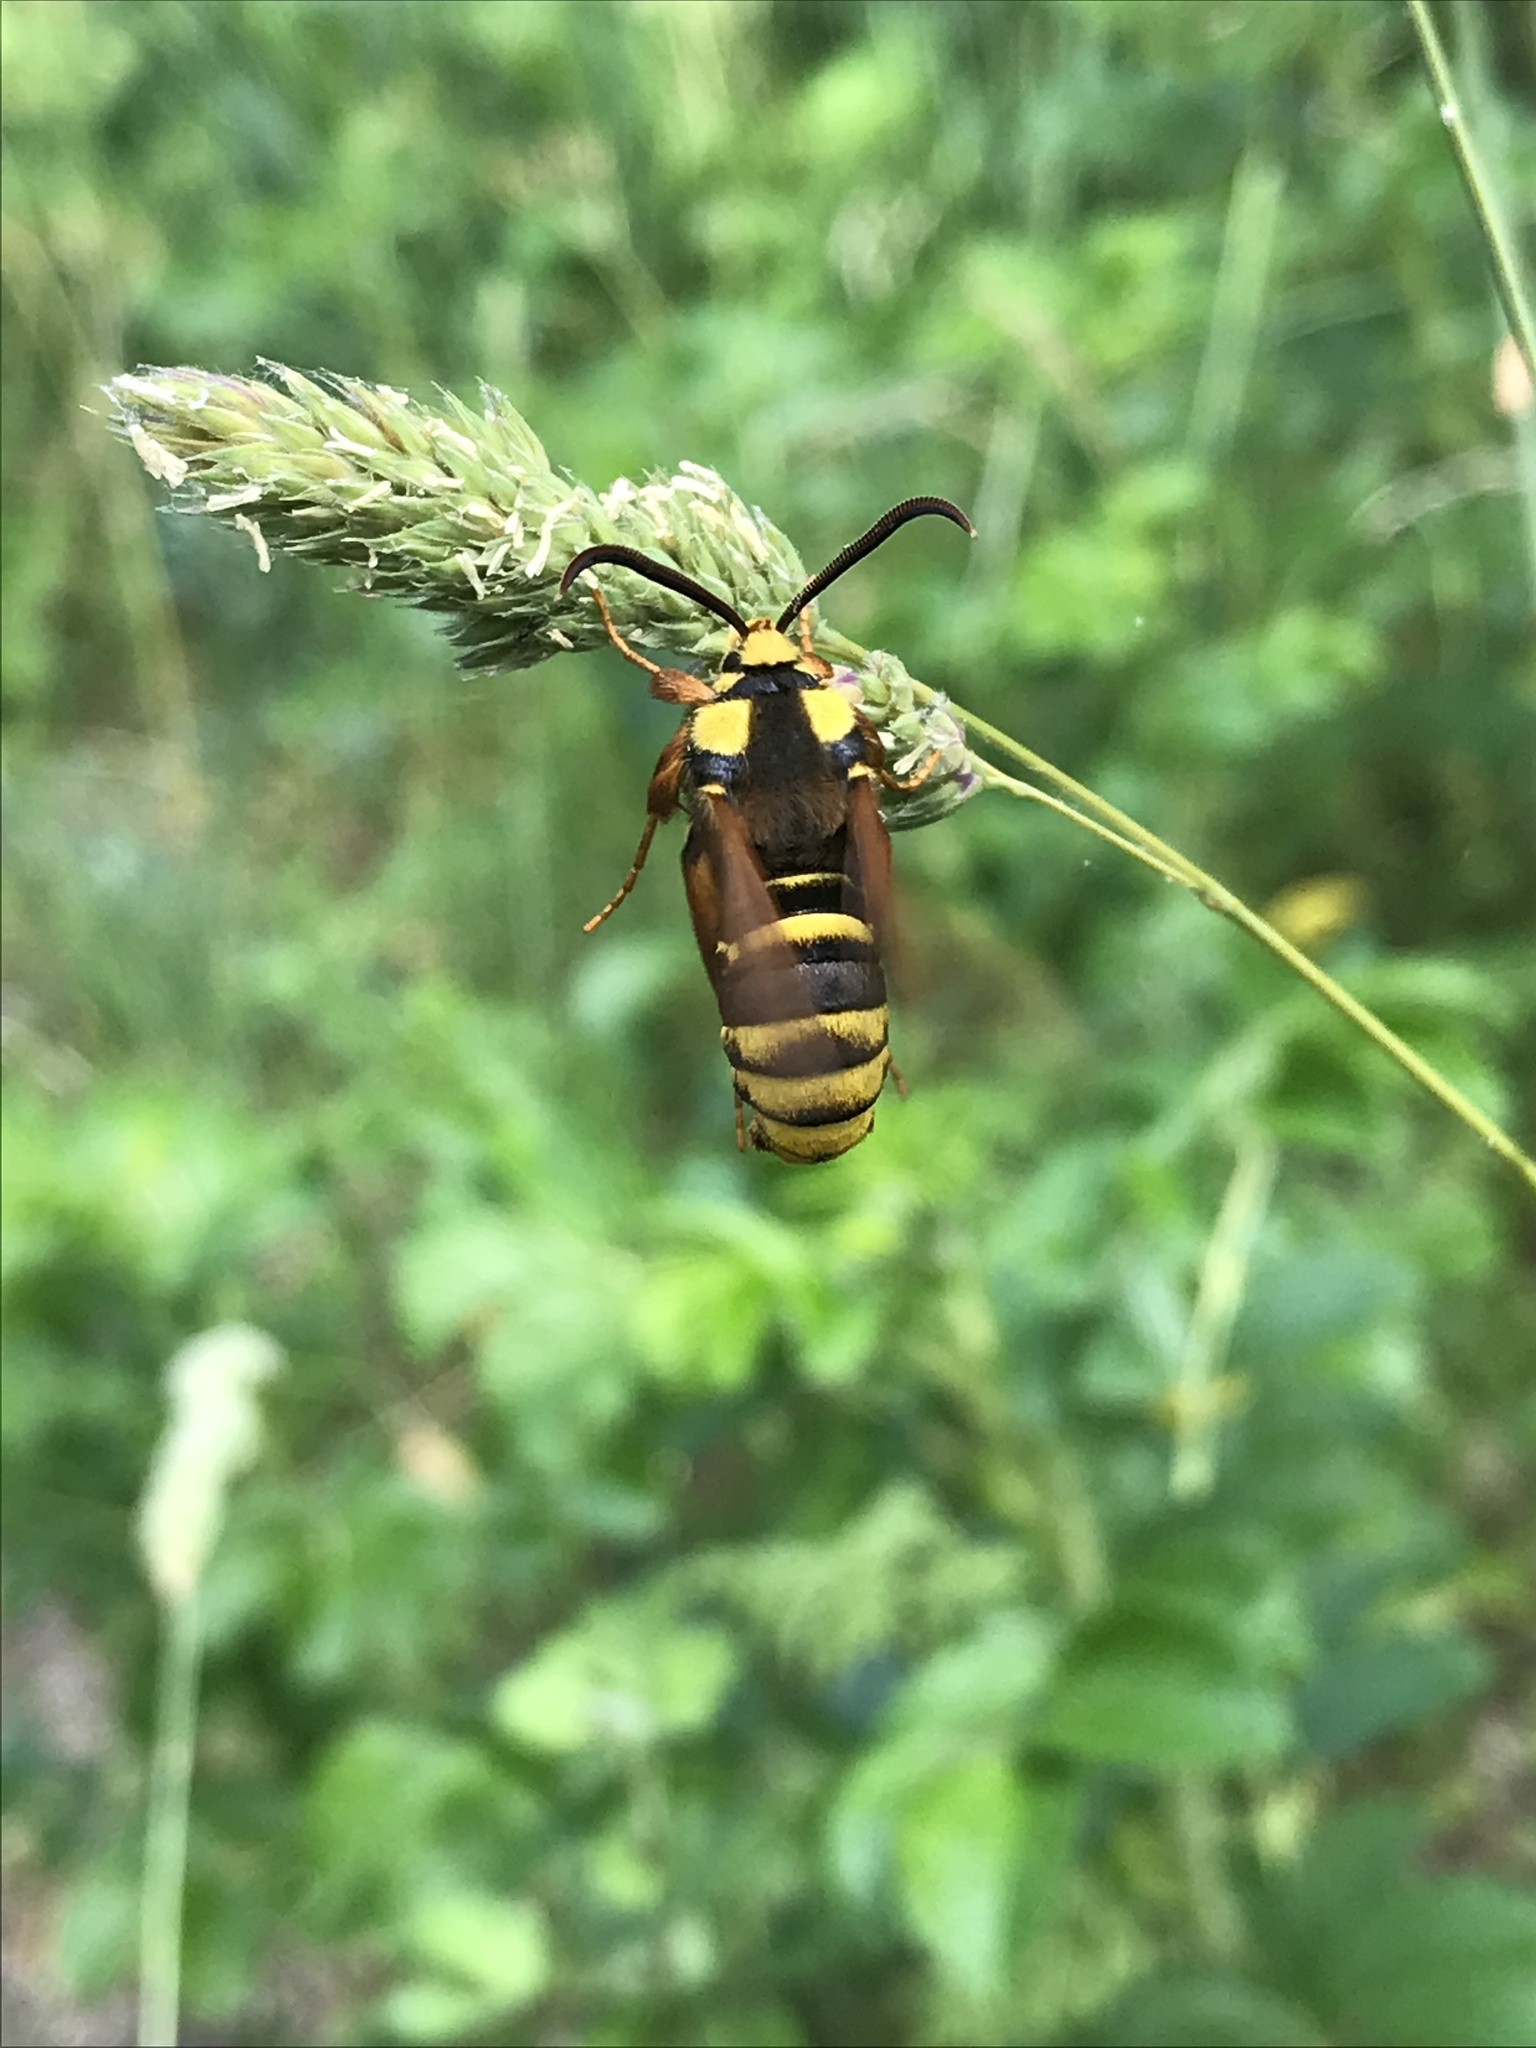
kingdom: Animalia
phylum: Arthropoda
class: Insecta
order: Lepidoptera
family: Sesiidae
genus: Sesia
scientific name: Sesia apiformis
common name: Hornet moth
